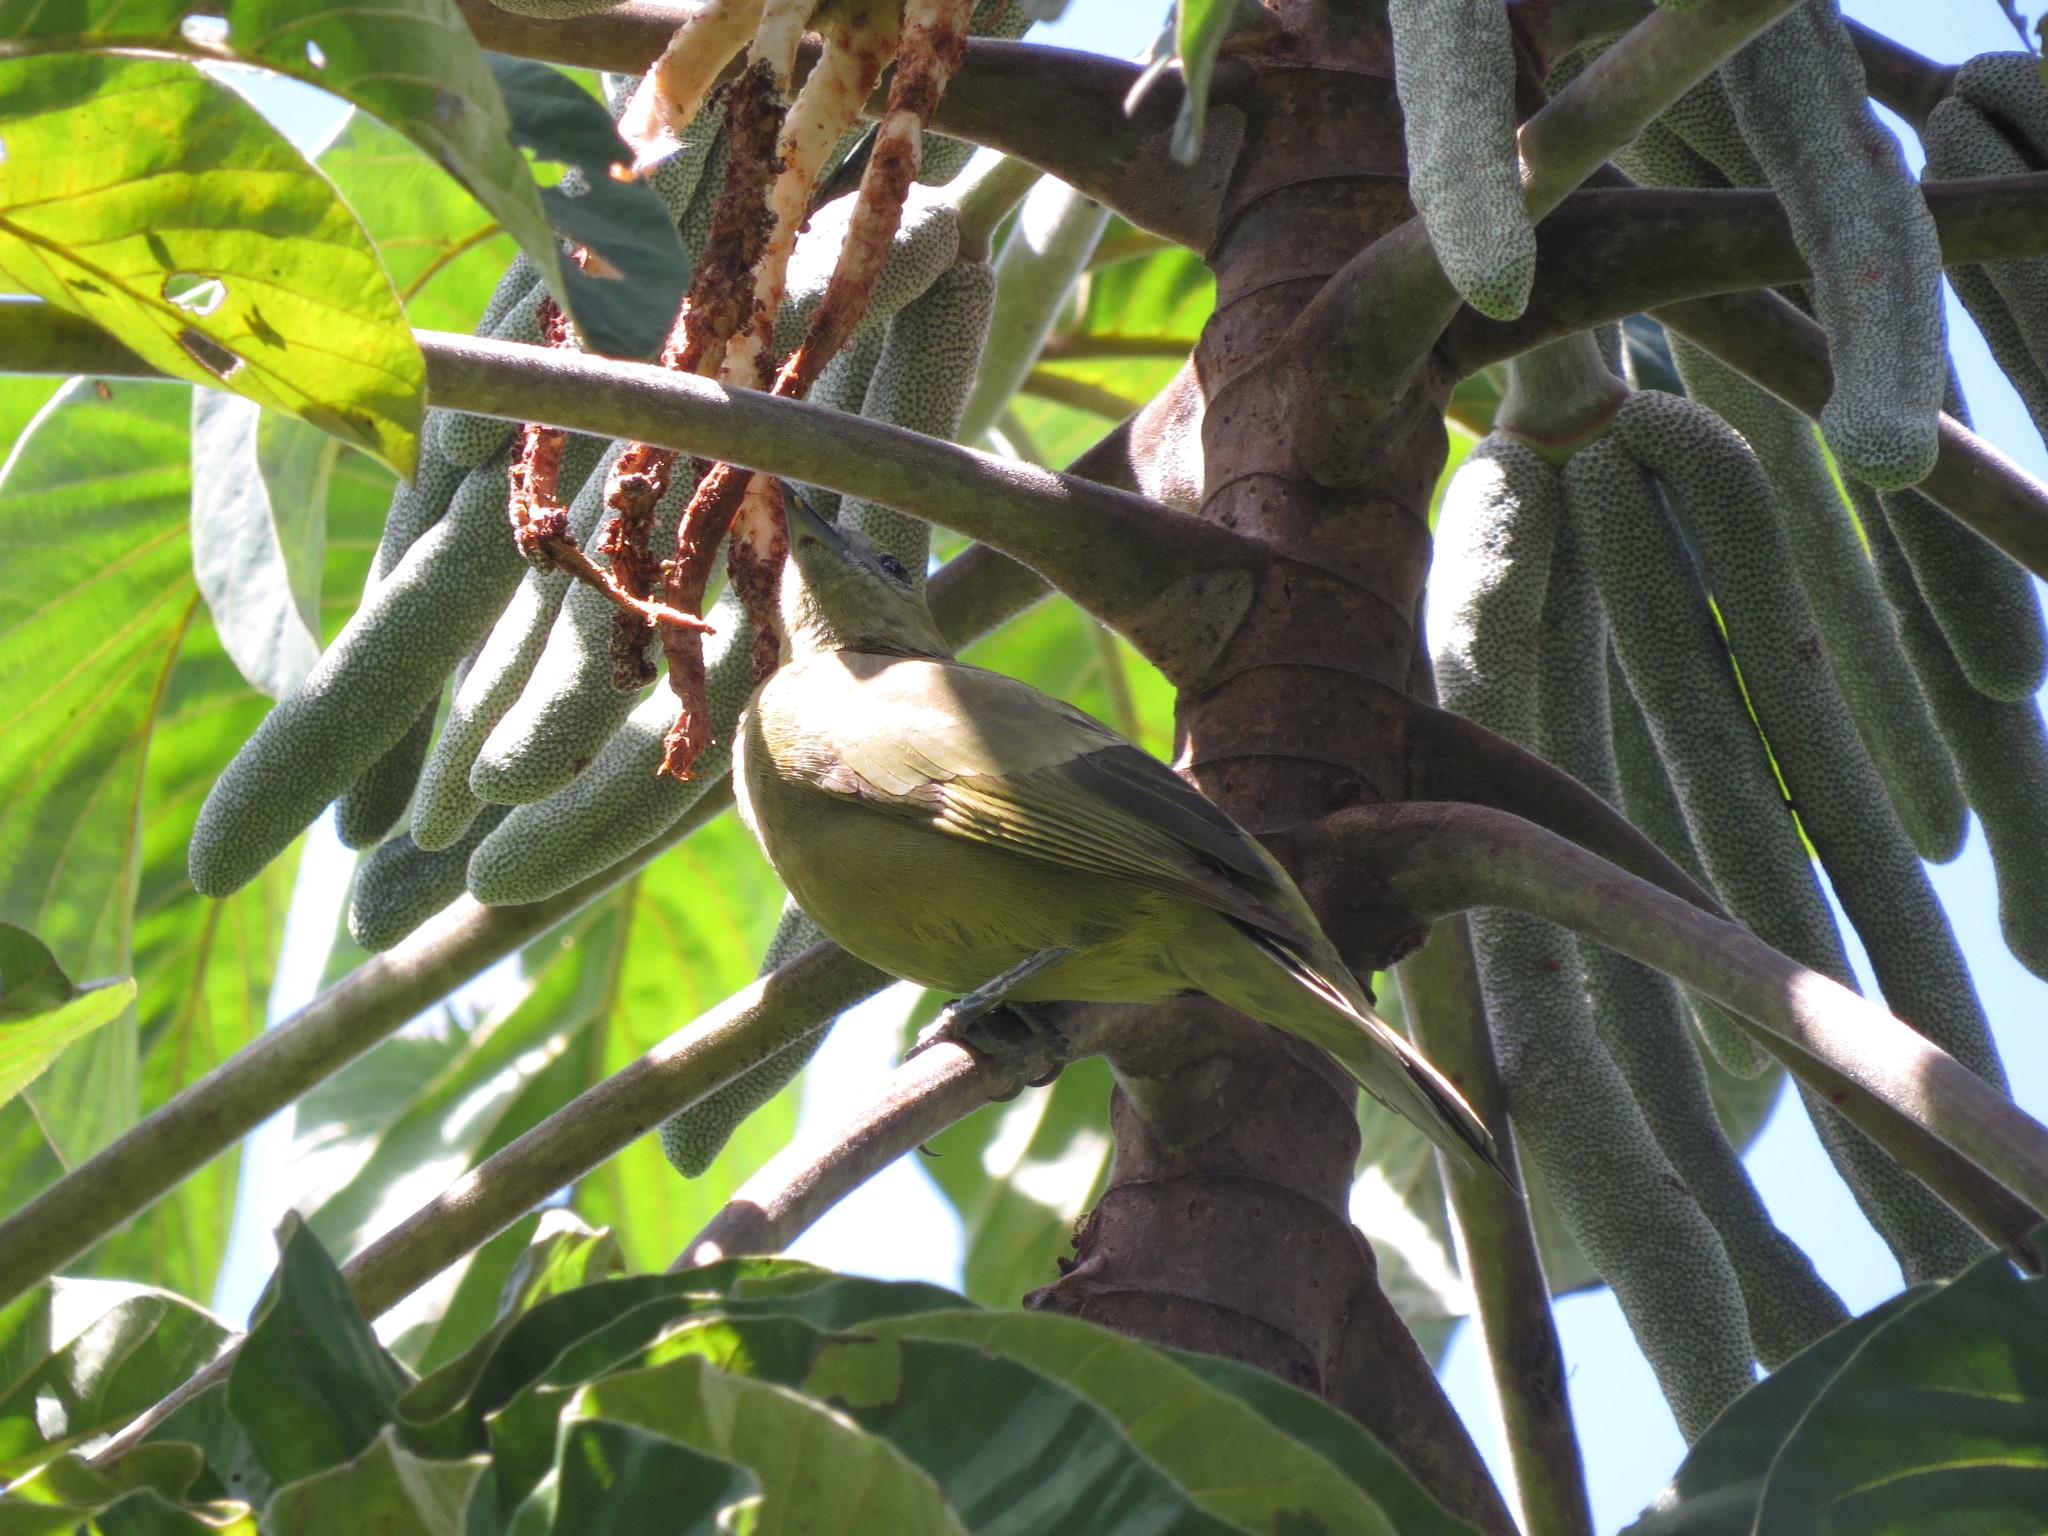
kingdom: Animalia
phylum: Chordata
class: Aves
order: Passeriformes
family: Thraupidae
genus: Thraupis
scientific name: Thraupis palmarum
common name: Palm tanager
